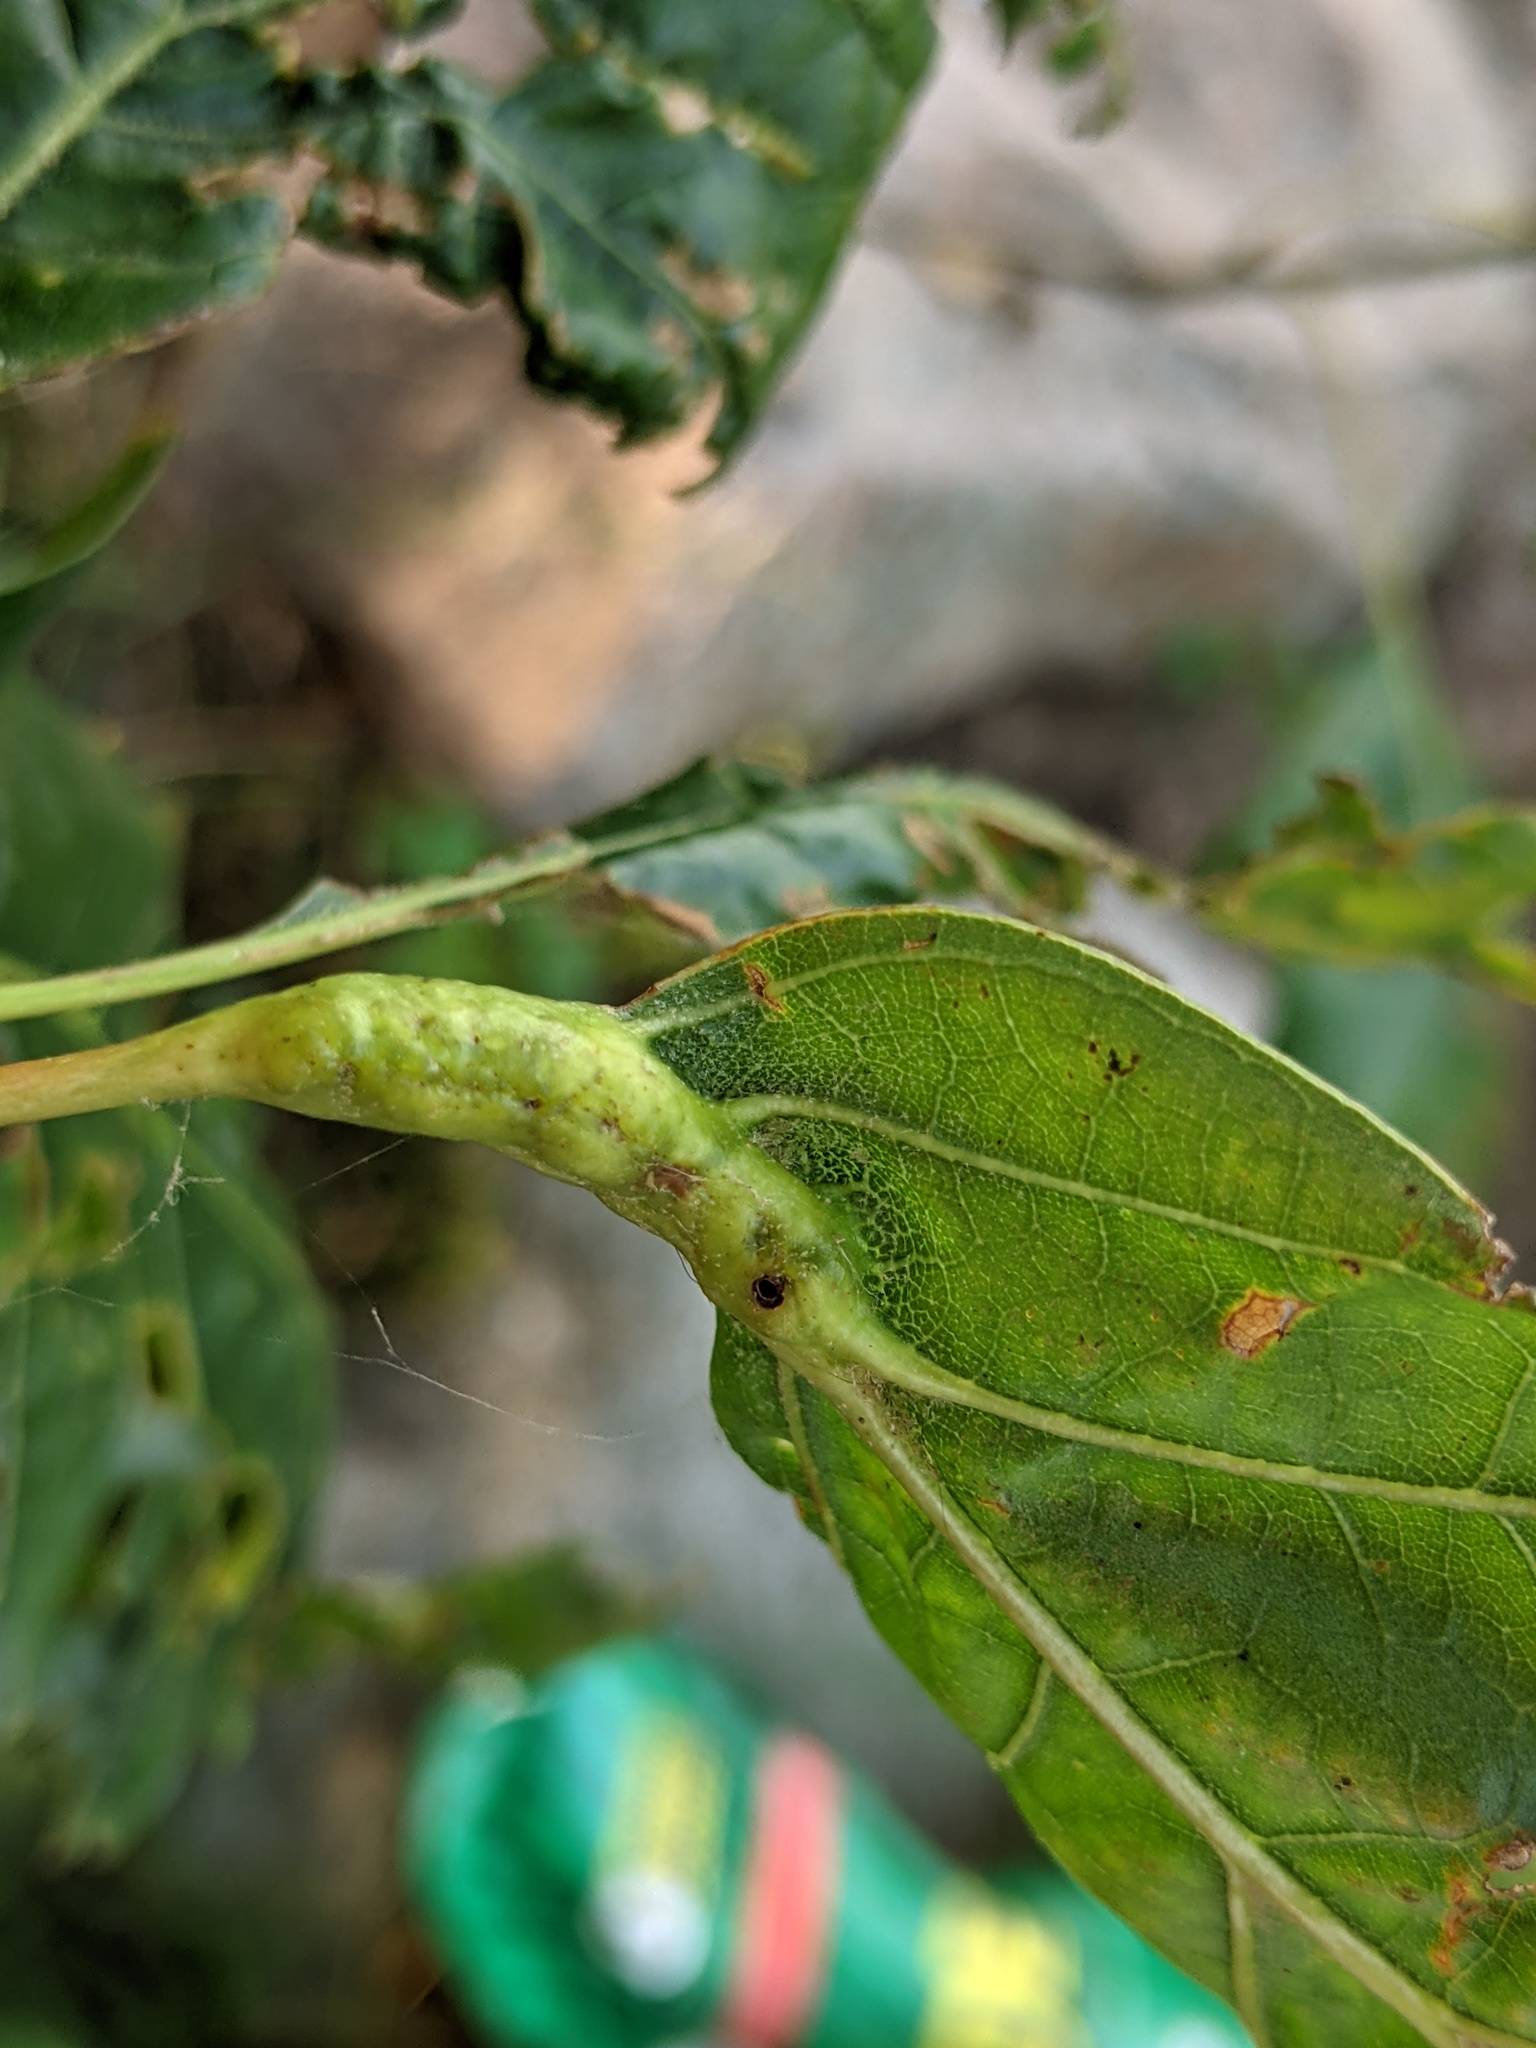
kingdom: Animalia
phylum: Arthropoda
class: Insecta
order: Hymenoptera
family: Cynipidae
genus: Melikaiella
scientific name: Melikaiella tumifica
